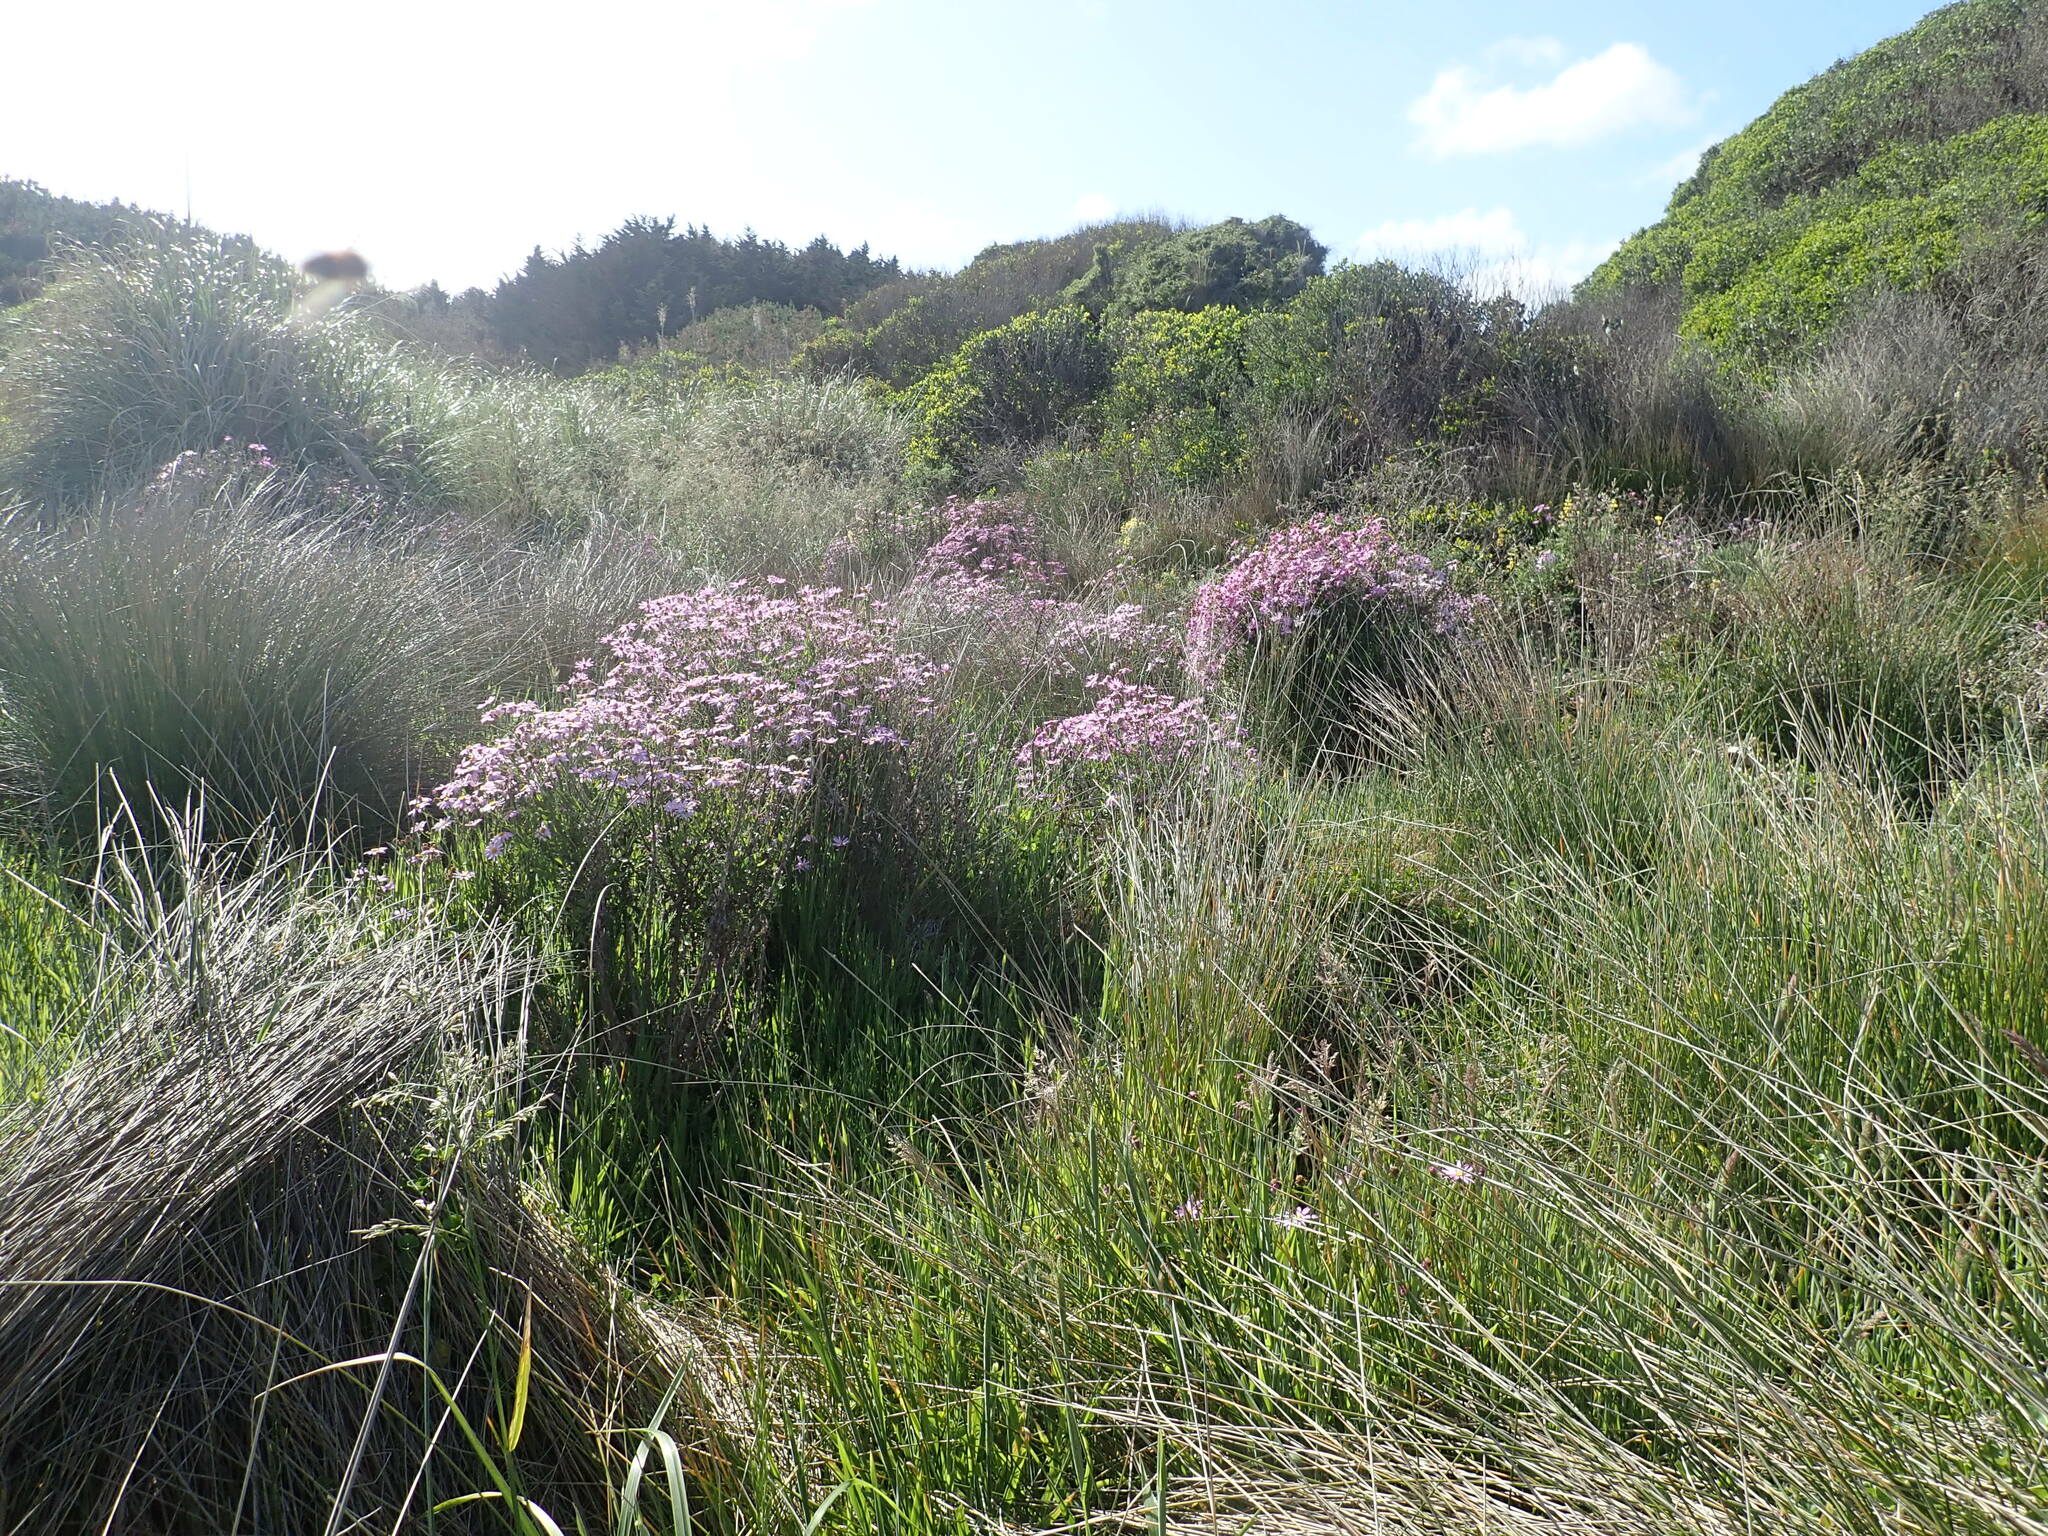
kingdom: Plantae
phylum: Tracheophyta
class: Magnoliopsida
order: Asterales
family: Asteraceae
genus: Senecio
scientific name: Senecio glastifolius
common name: Woad-leaved ragwort
